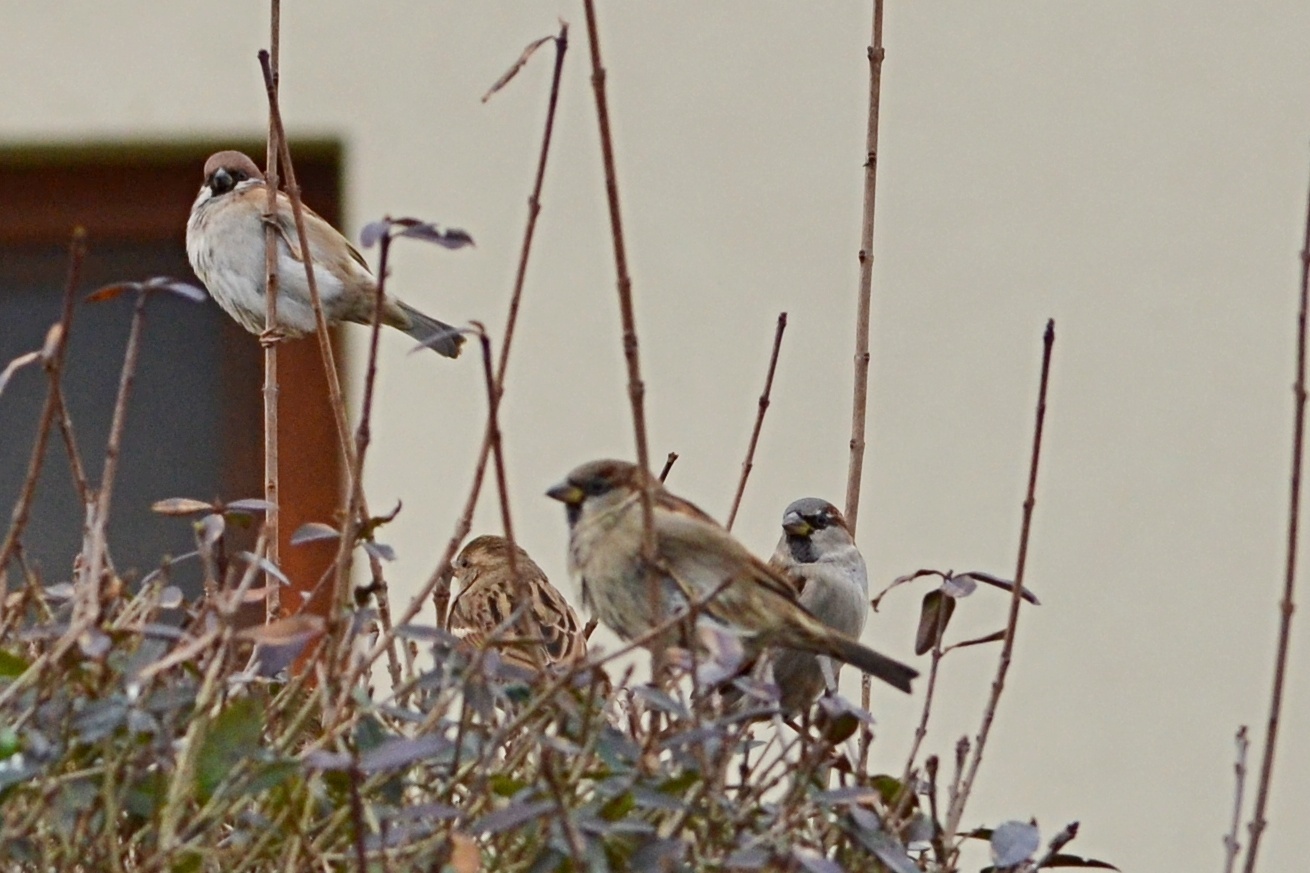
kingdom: Animalia
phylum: Chordata
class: Aves
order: Passeriformes
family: Passeridae
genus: Passer
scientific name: Passer domesticus
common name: House sparrow
